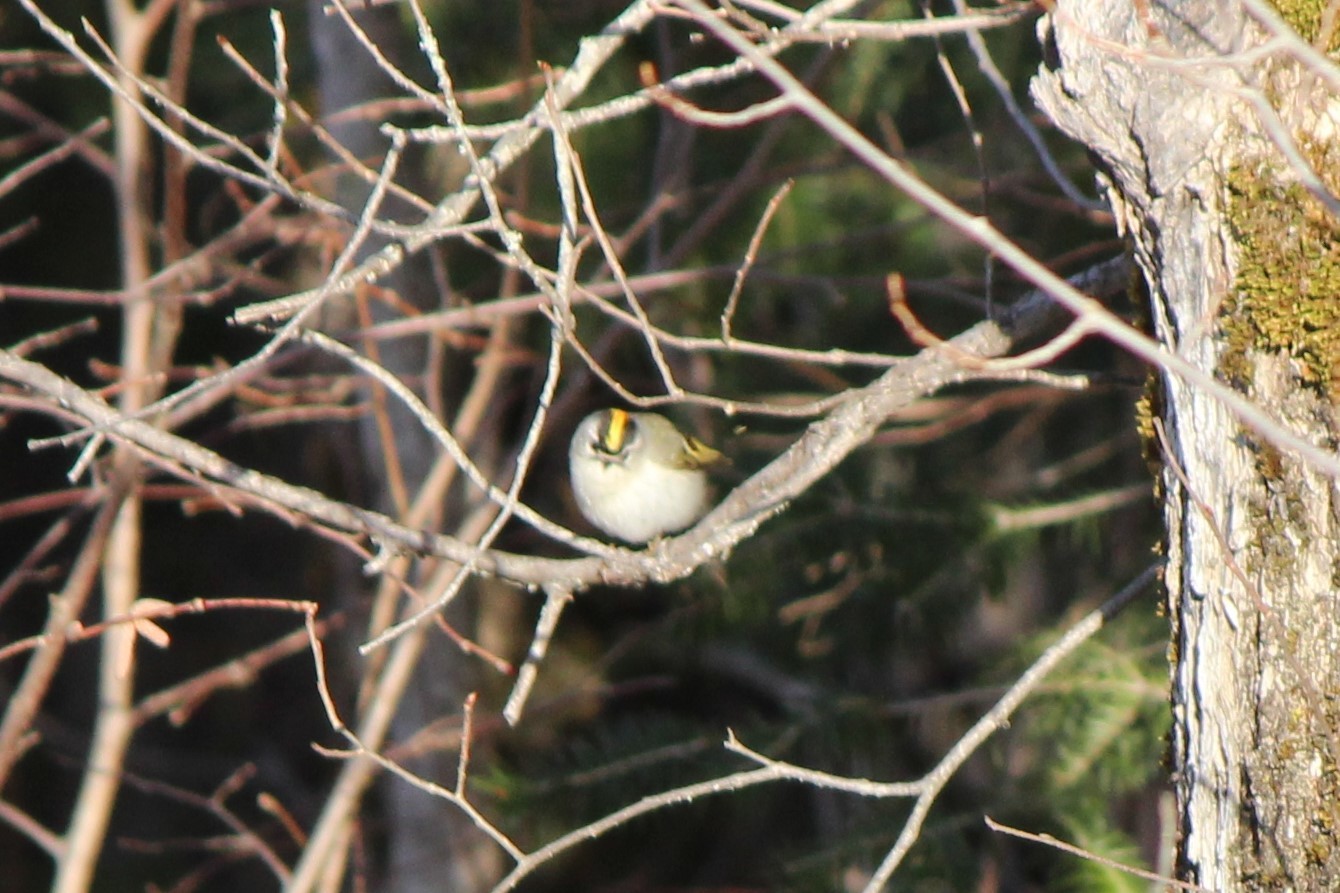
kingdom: Animalia
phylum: Chordata
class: Aves
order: Passeriformes
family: Regulidae
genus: Regulus
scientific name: Regulus satrapa
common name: Golden-crowned kinglet
